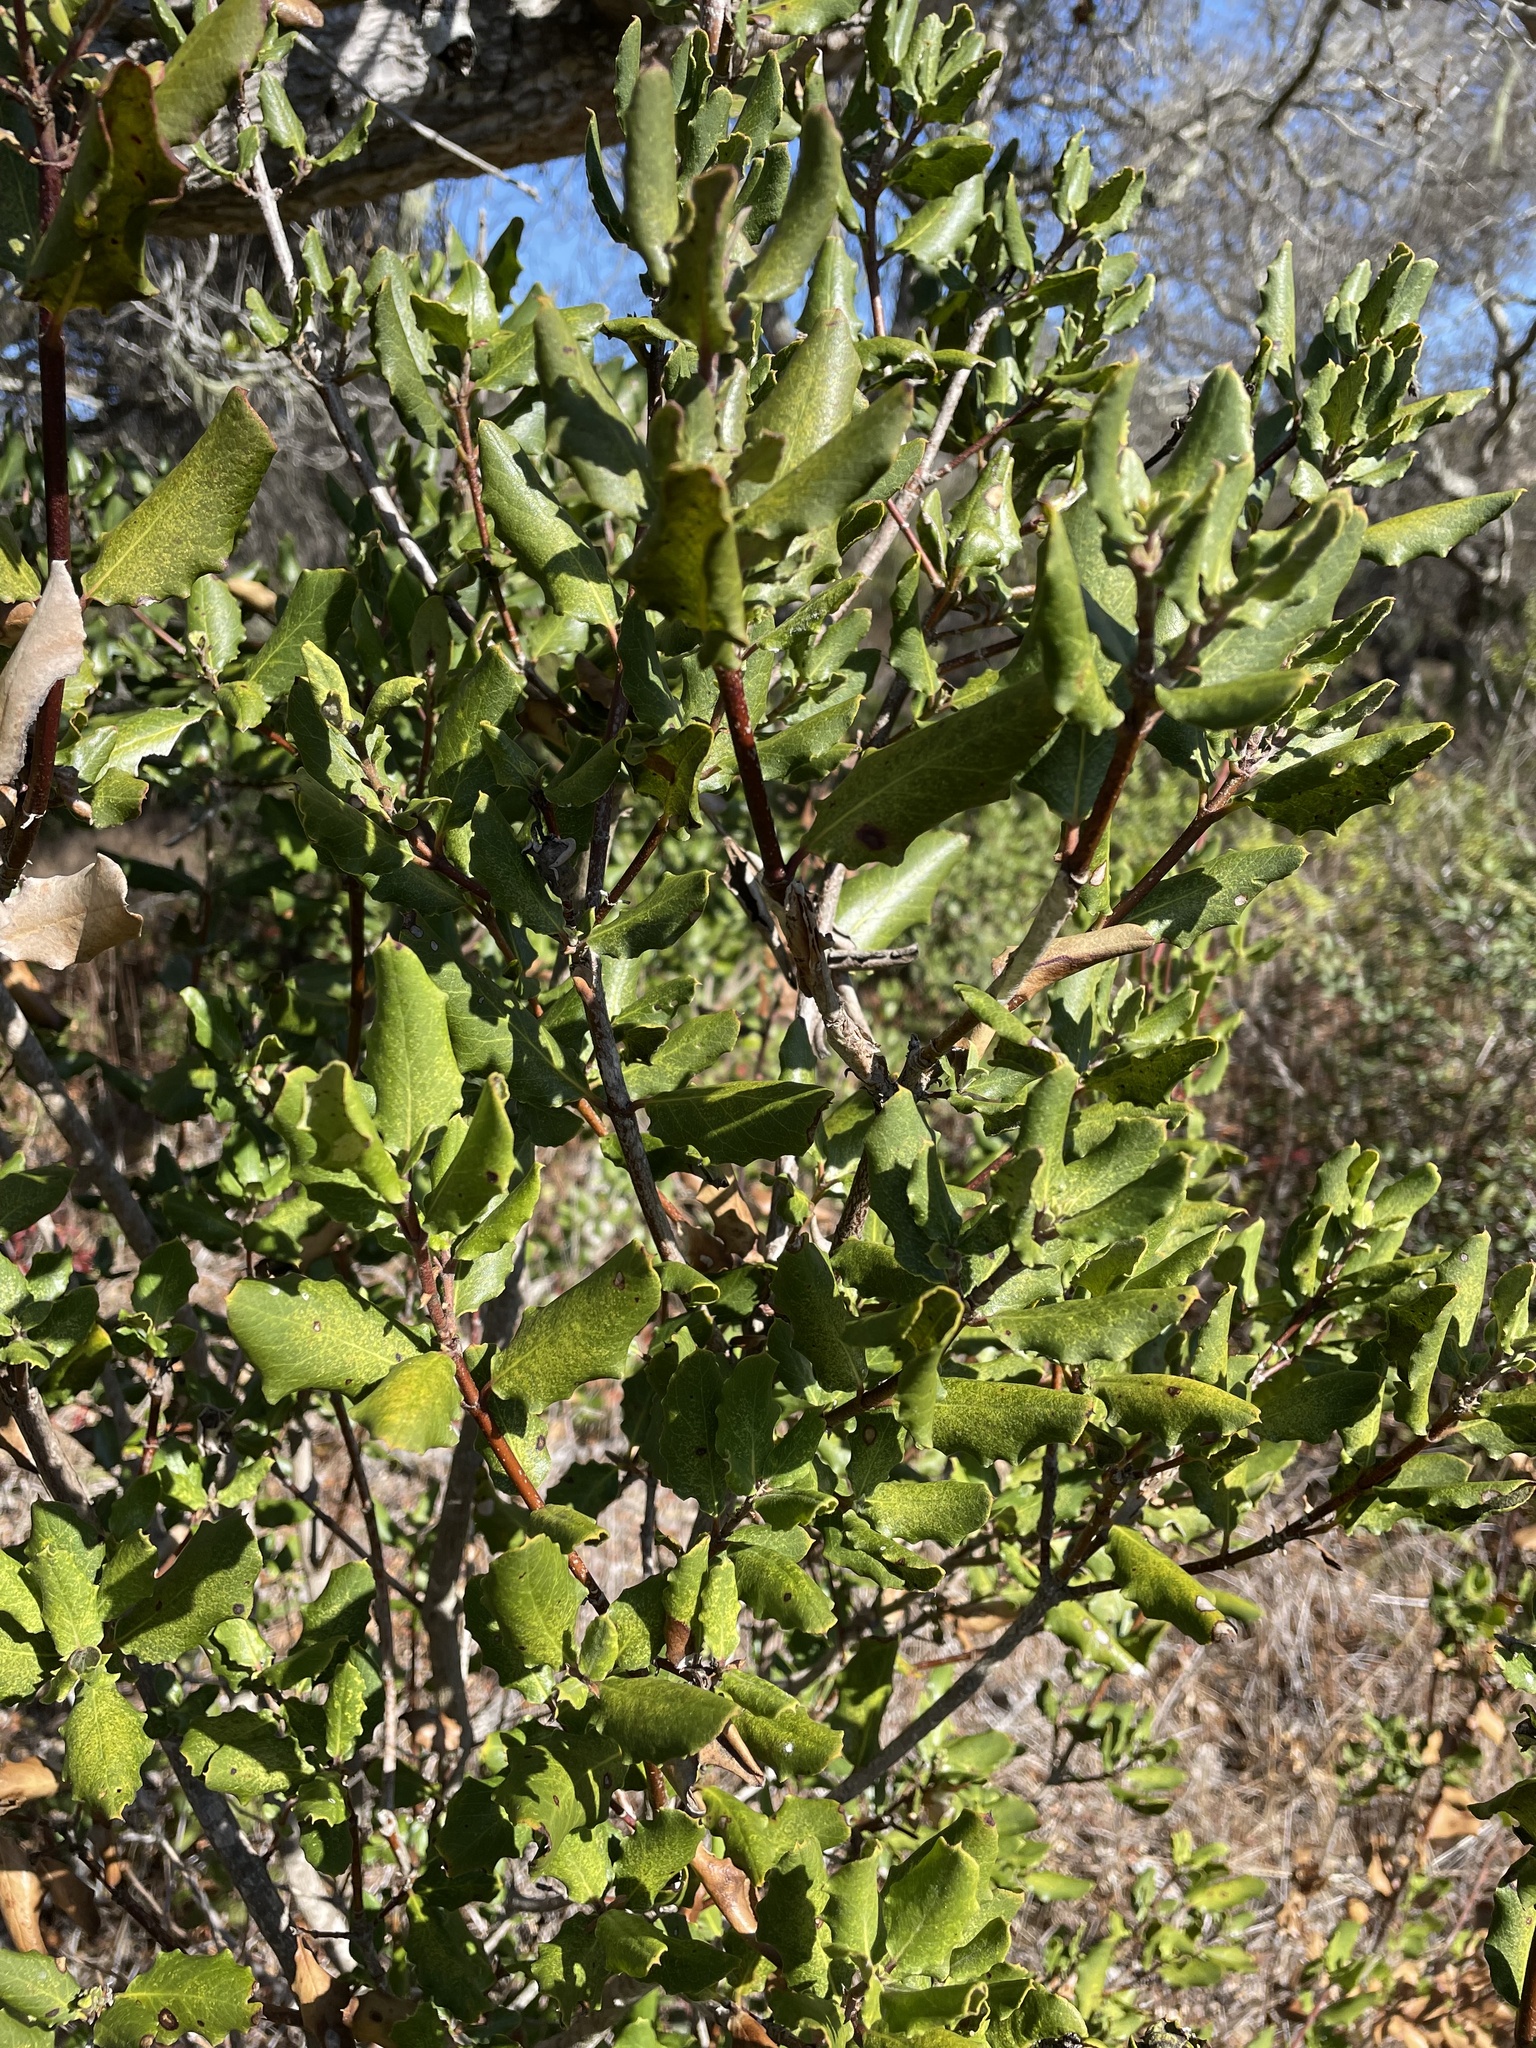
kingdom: Plantae
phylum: Tracheophyta
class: Magnoliopsida
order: Garryales
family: Garryaceae
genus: Garrya
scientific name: Garrya elliptica
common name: Silk-tassel
